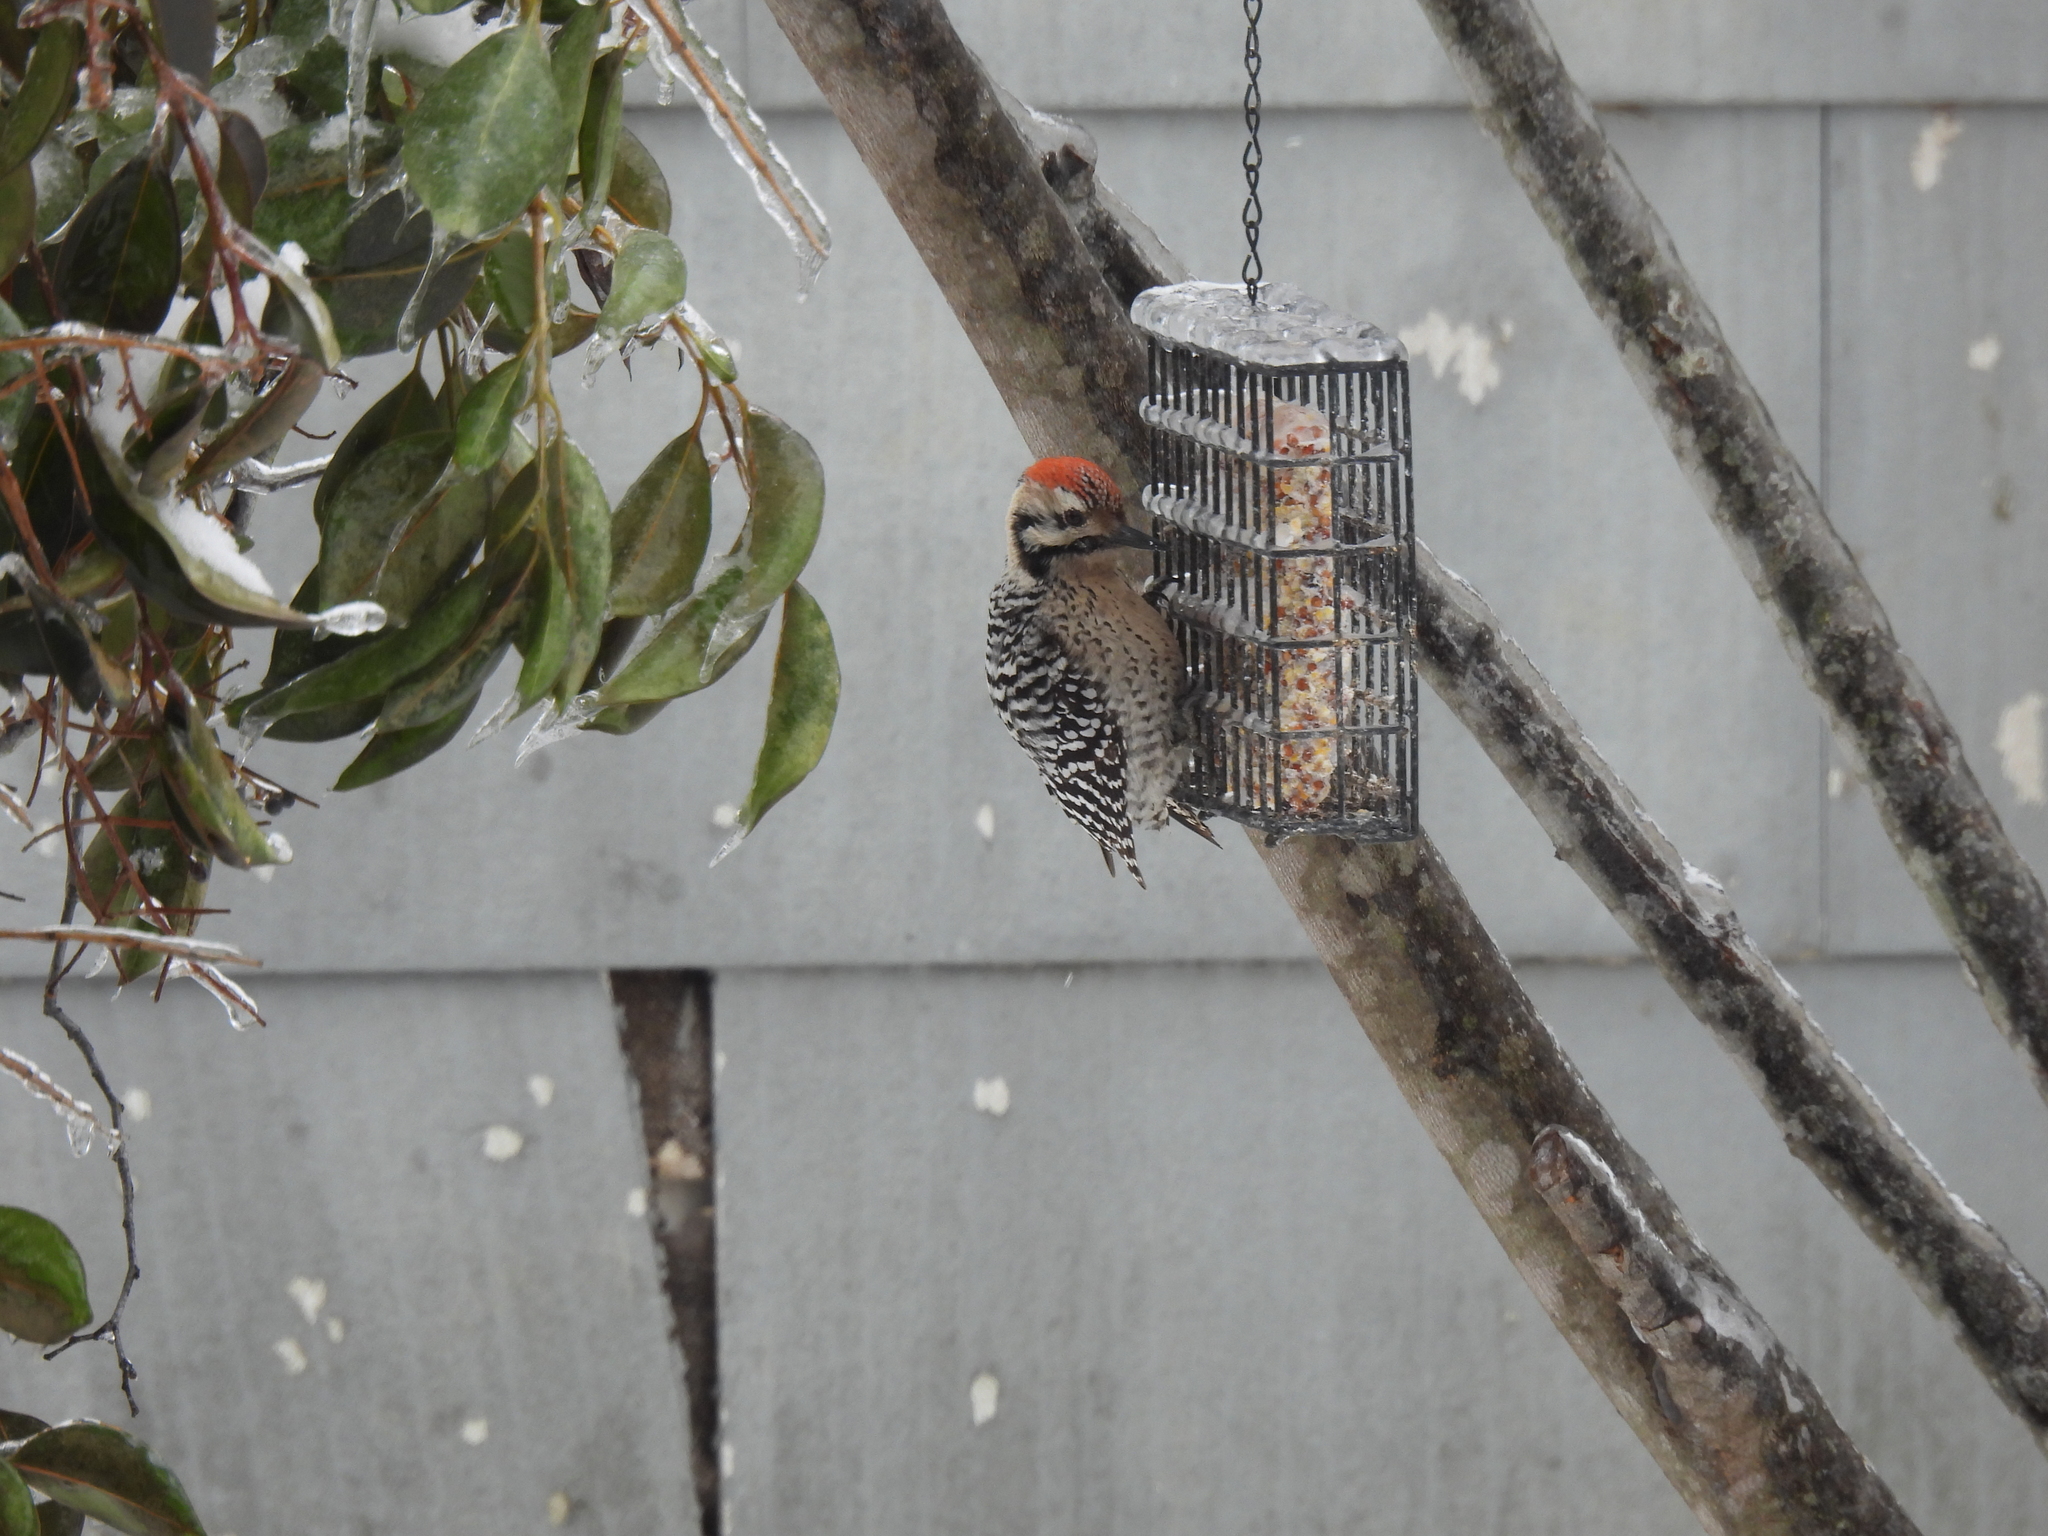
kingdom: Animalia
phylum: Chordata
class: Aves
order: Piciformes
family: Picidae
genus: Dryobates
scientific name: Dryobates scalaris
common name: Ladder-backed woodpecker
